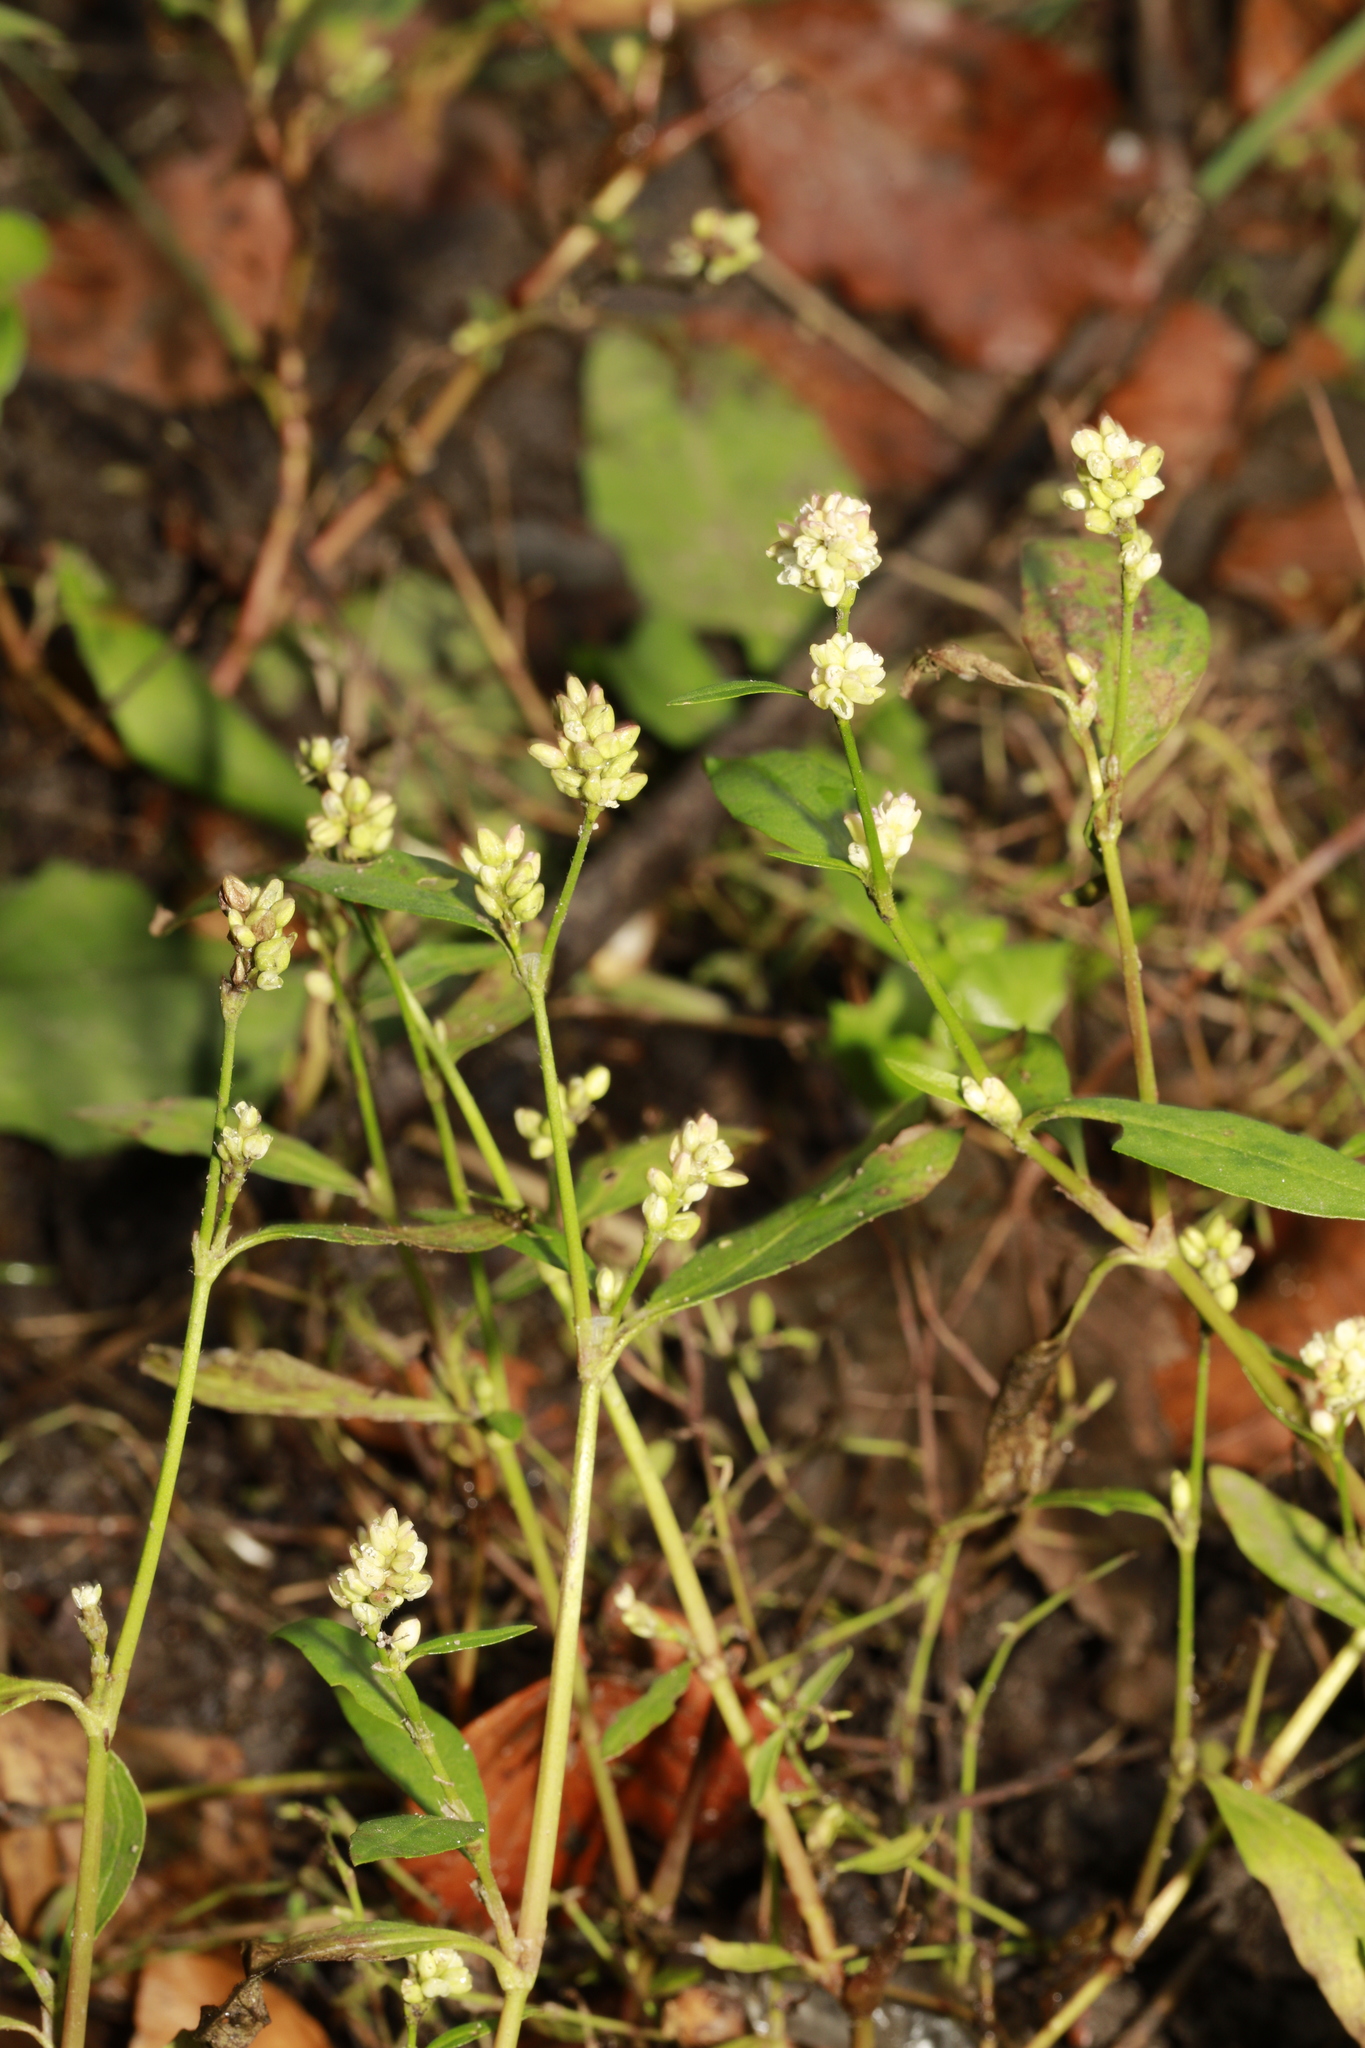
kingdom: Plantae
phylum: Tracheophyta
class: Magnoliopsida
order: Caryophyllales
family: Polygonaceae
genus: Persicaria
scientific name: Persicaria lapathifolia
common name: Curlytop knotweed
